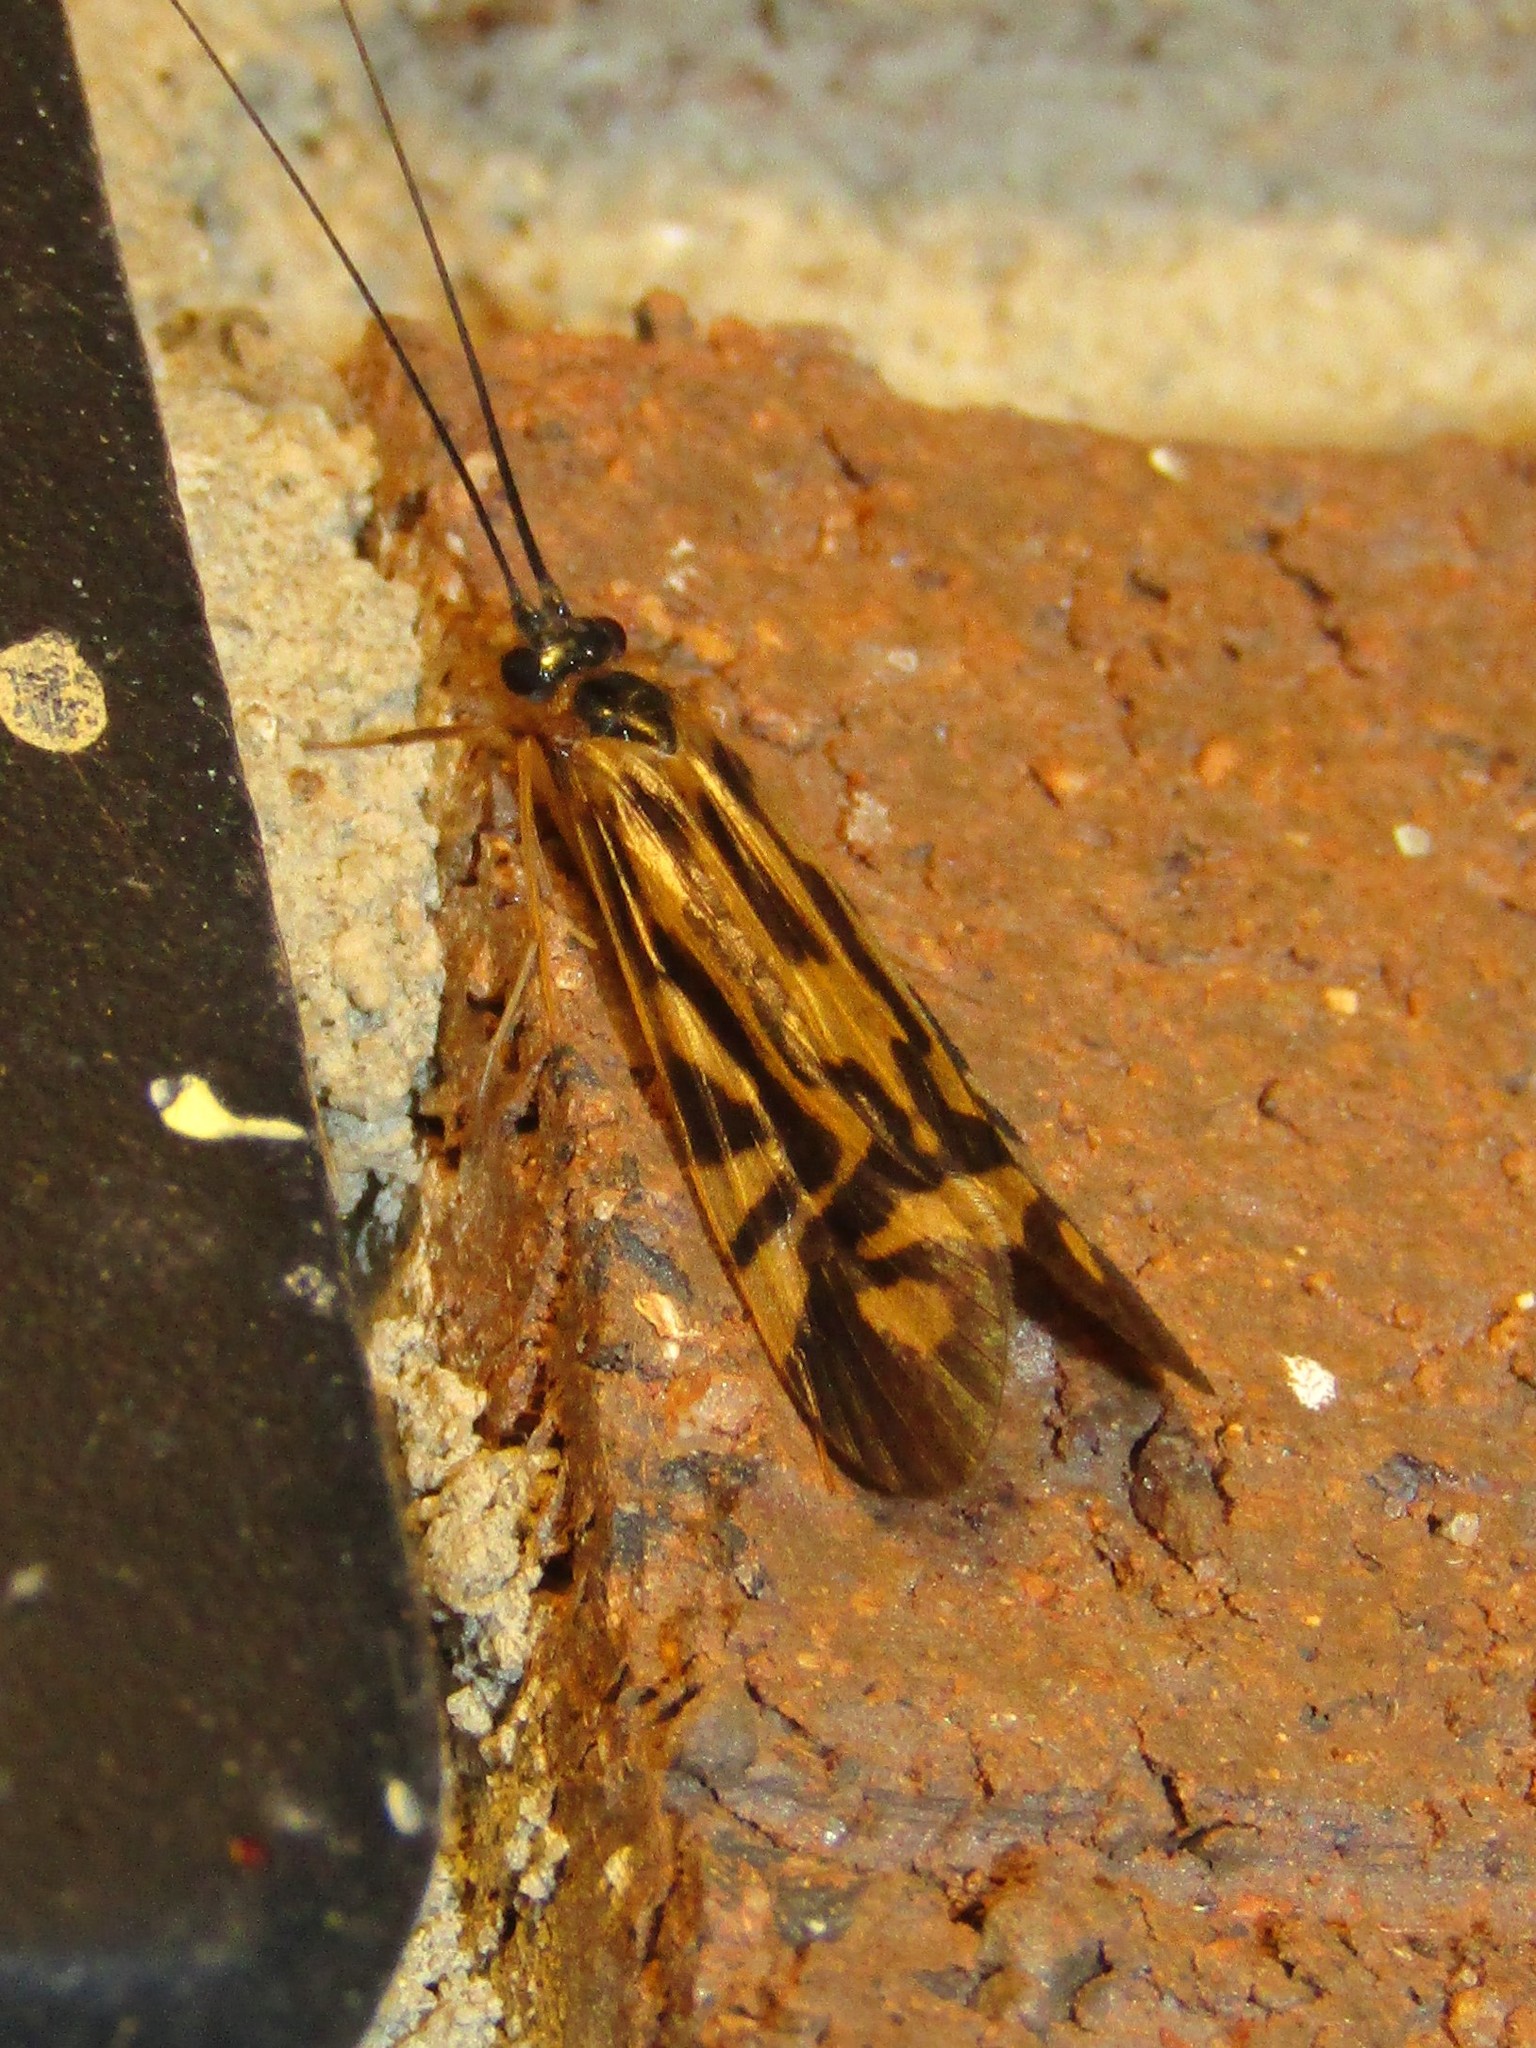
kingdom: Animalia
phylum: Arthropoda
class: Insecta
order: Trichoptera
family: Hydropsychidae
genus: Macrostemum
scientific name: Macrostemum zebratum
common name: Zebra caddisfly
